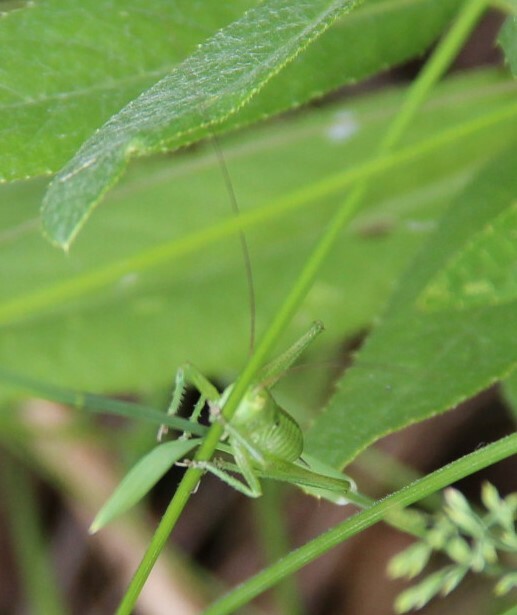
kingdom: Animalia
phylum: Arthropoda
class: Insecta
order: Orthoptera
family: Tettigoniidae
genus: Tettigonia
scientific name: Tettigonia viridissima
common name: Great green bush-cricket
